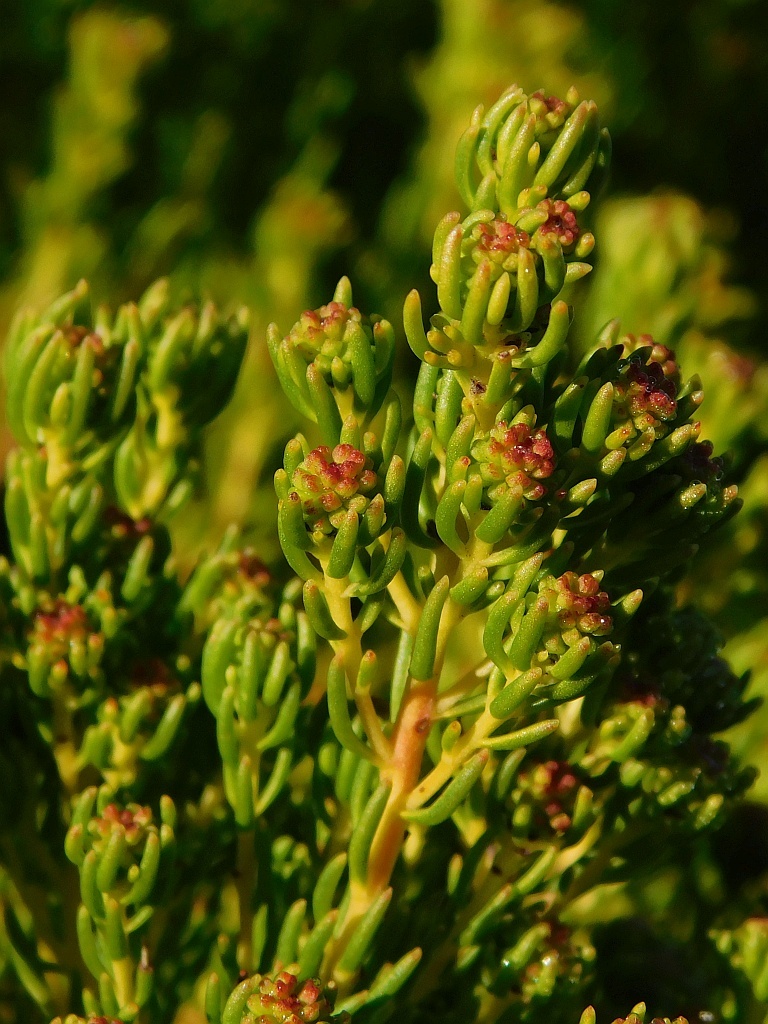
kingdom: Plantae
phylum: Tracheophyta
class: Magnoliopsida
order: Proteales
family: Proteaceae
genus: Leucadendron
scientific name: Leucadendron teretifolium
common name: Needle-leaf conebush
